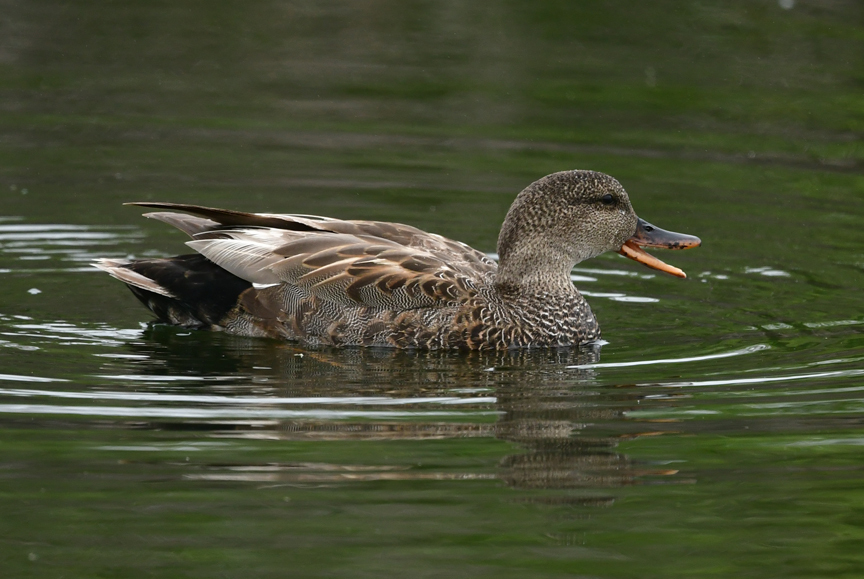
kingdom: Animalia
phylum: Chordata
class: Aves
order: Anseriformes
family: Anatidae
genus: Mareca
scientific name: Mareca strepera
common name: Gadwall
